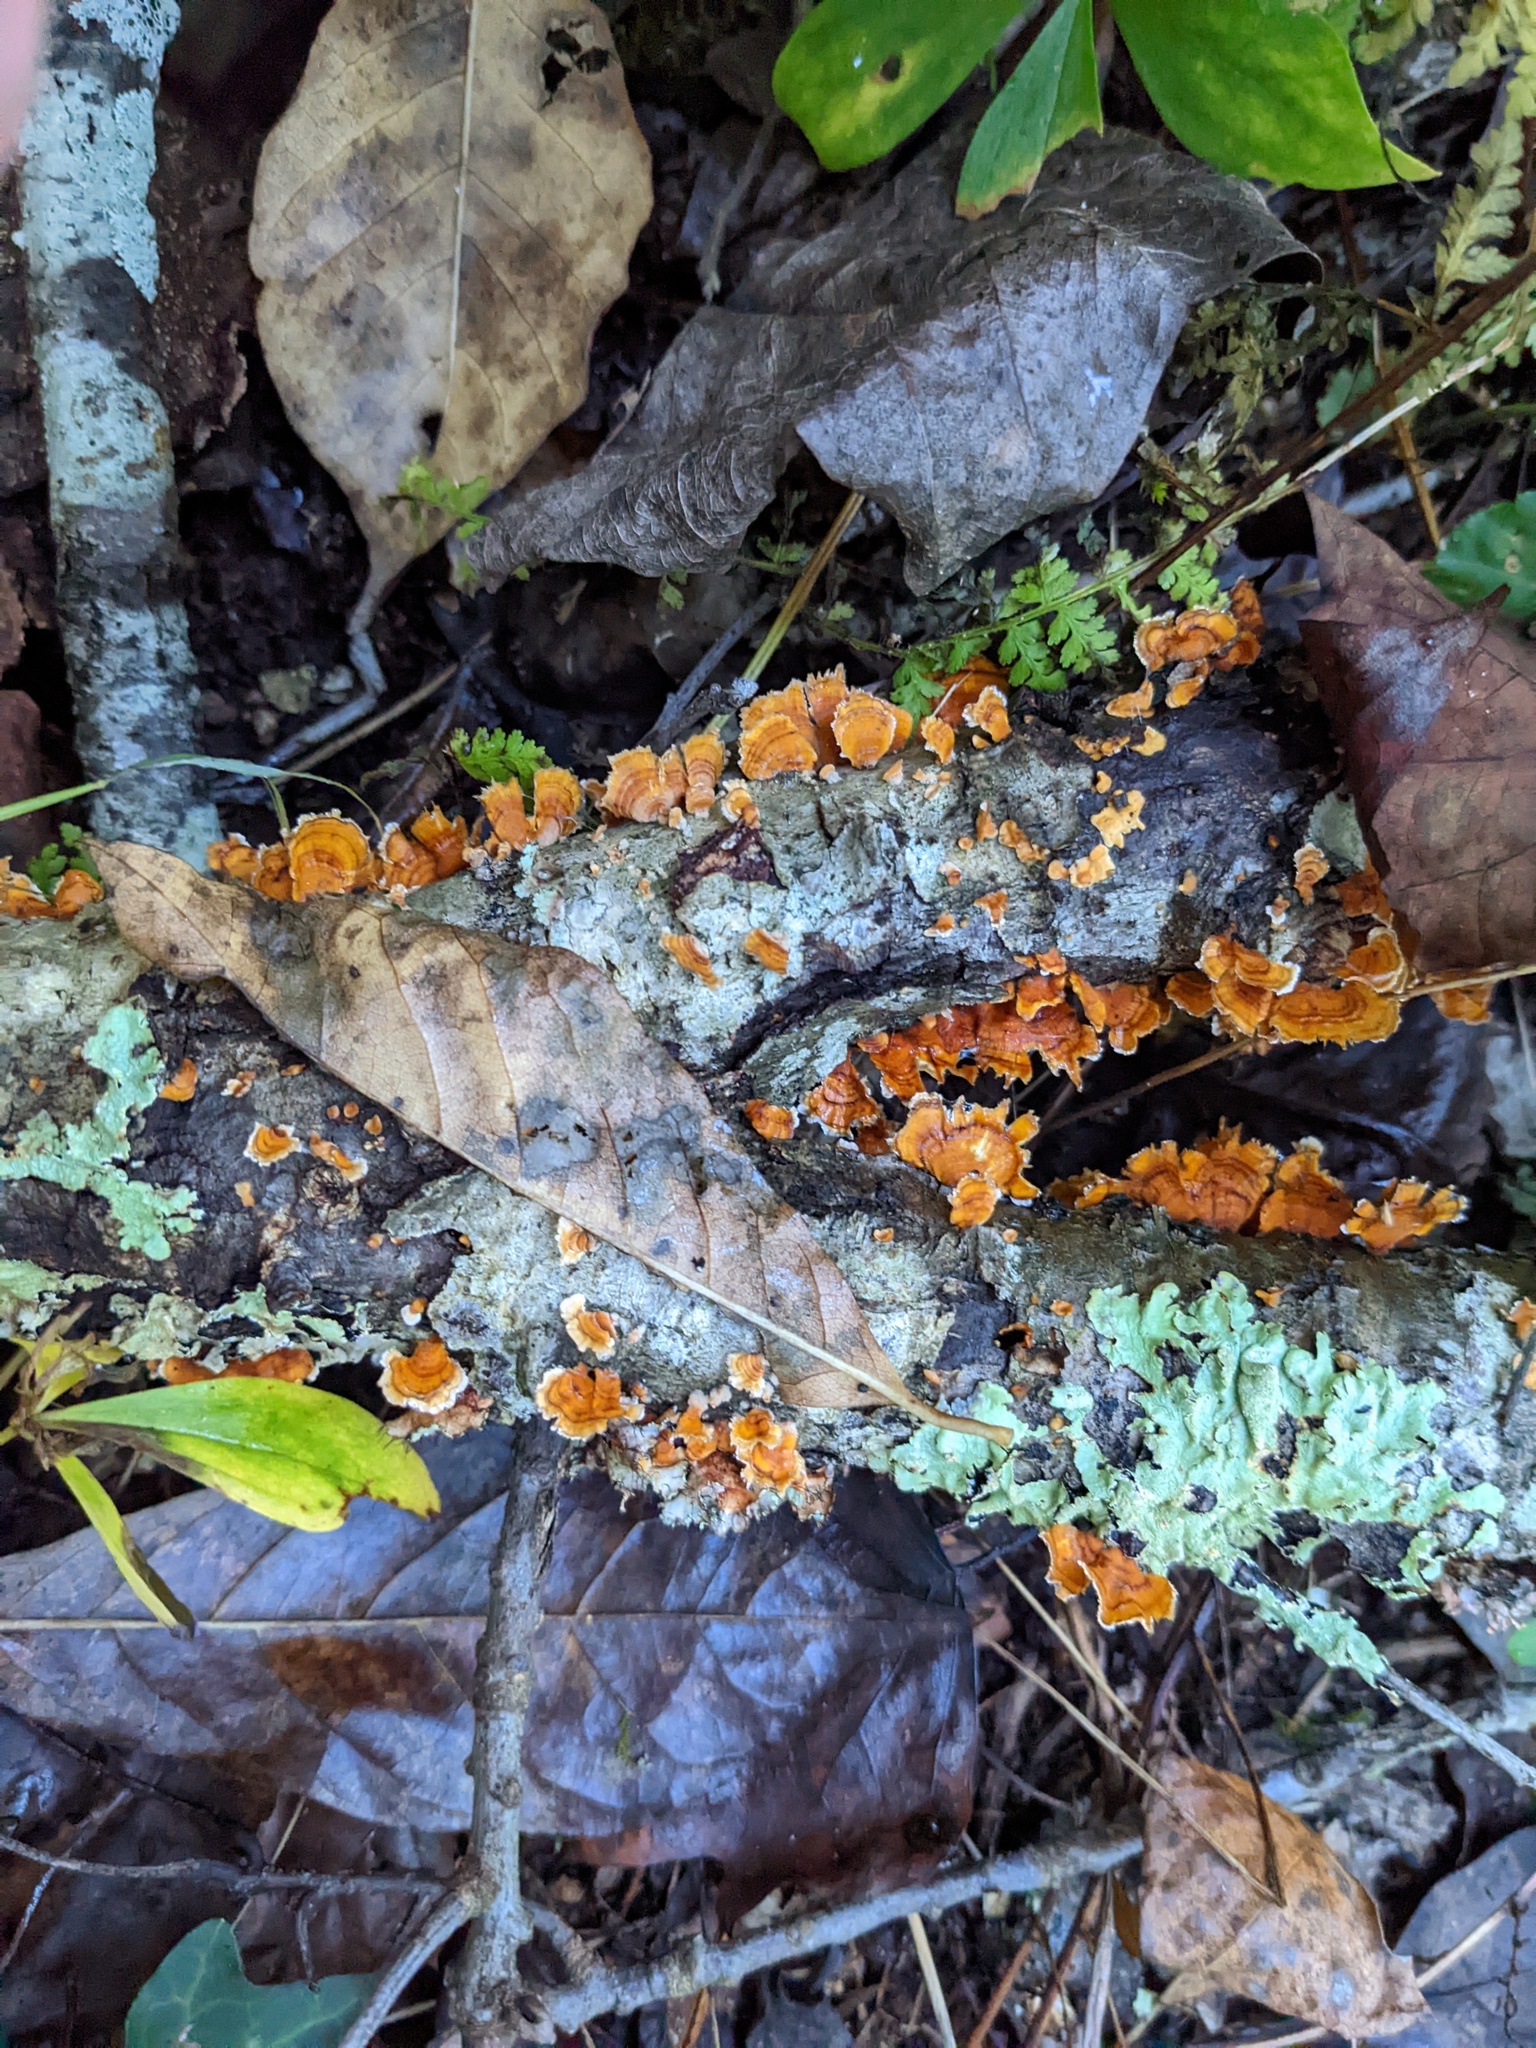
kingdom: Fungi
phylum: Basidiomycota
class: Agaricomycetes
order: Russulales
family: Stereaceae
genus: Stereum
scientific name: Stereum complicatum
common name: Crowded parchment
